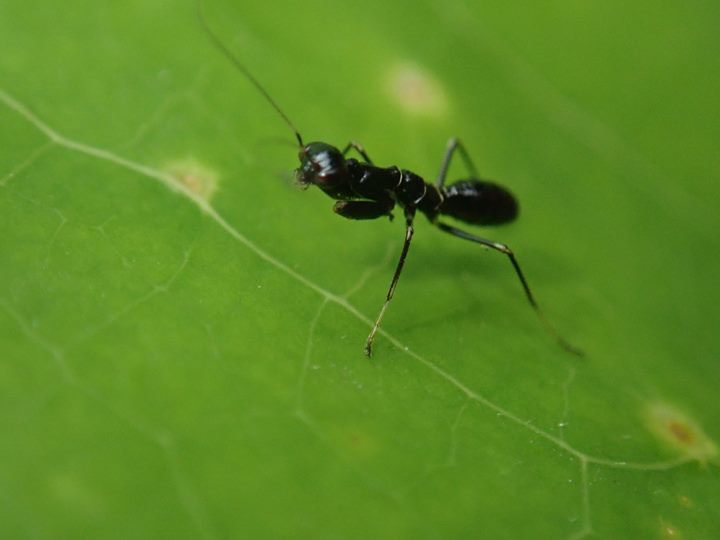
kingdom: Animalia
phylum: Arthropoda
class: Insecta
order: Mantodea
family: Hymenopodidae
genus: Odontomantis
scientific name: Odontomantis planiceps
